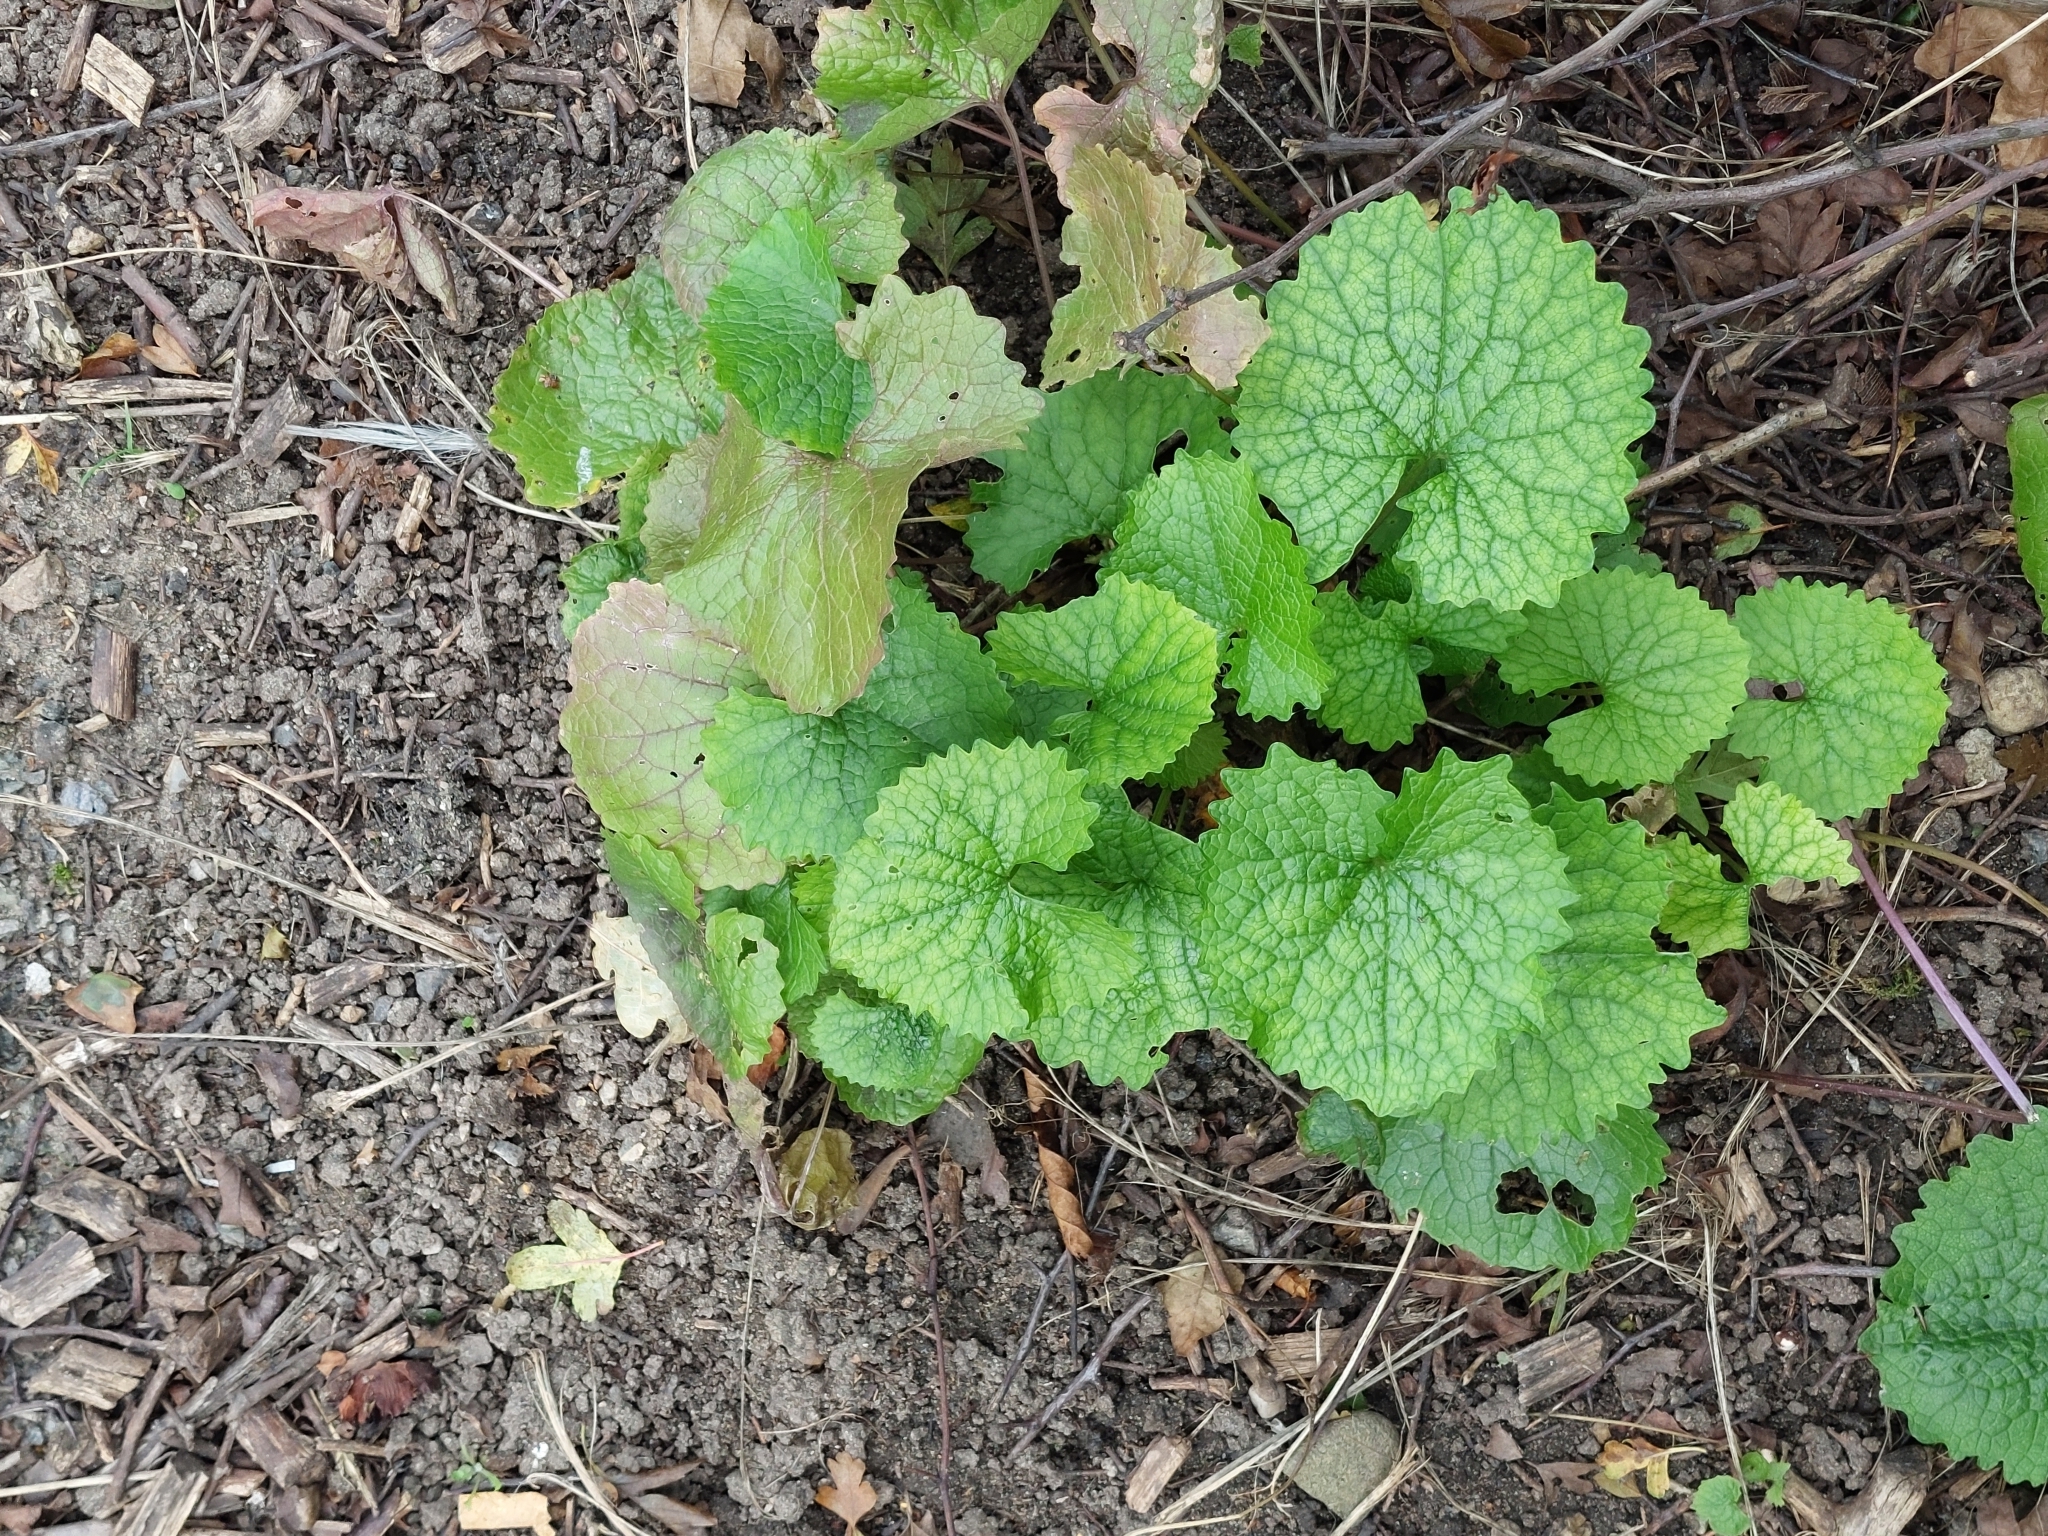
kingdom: Plantae
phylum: Tracheophyta
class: Magnoliopsida
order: Brassicales
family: Brassicaceae
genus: Alliaria
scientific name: Alliaria petiolata
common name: Garlic mustard
